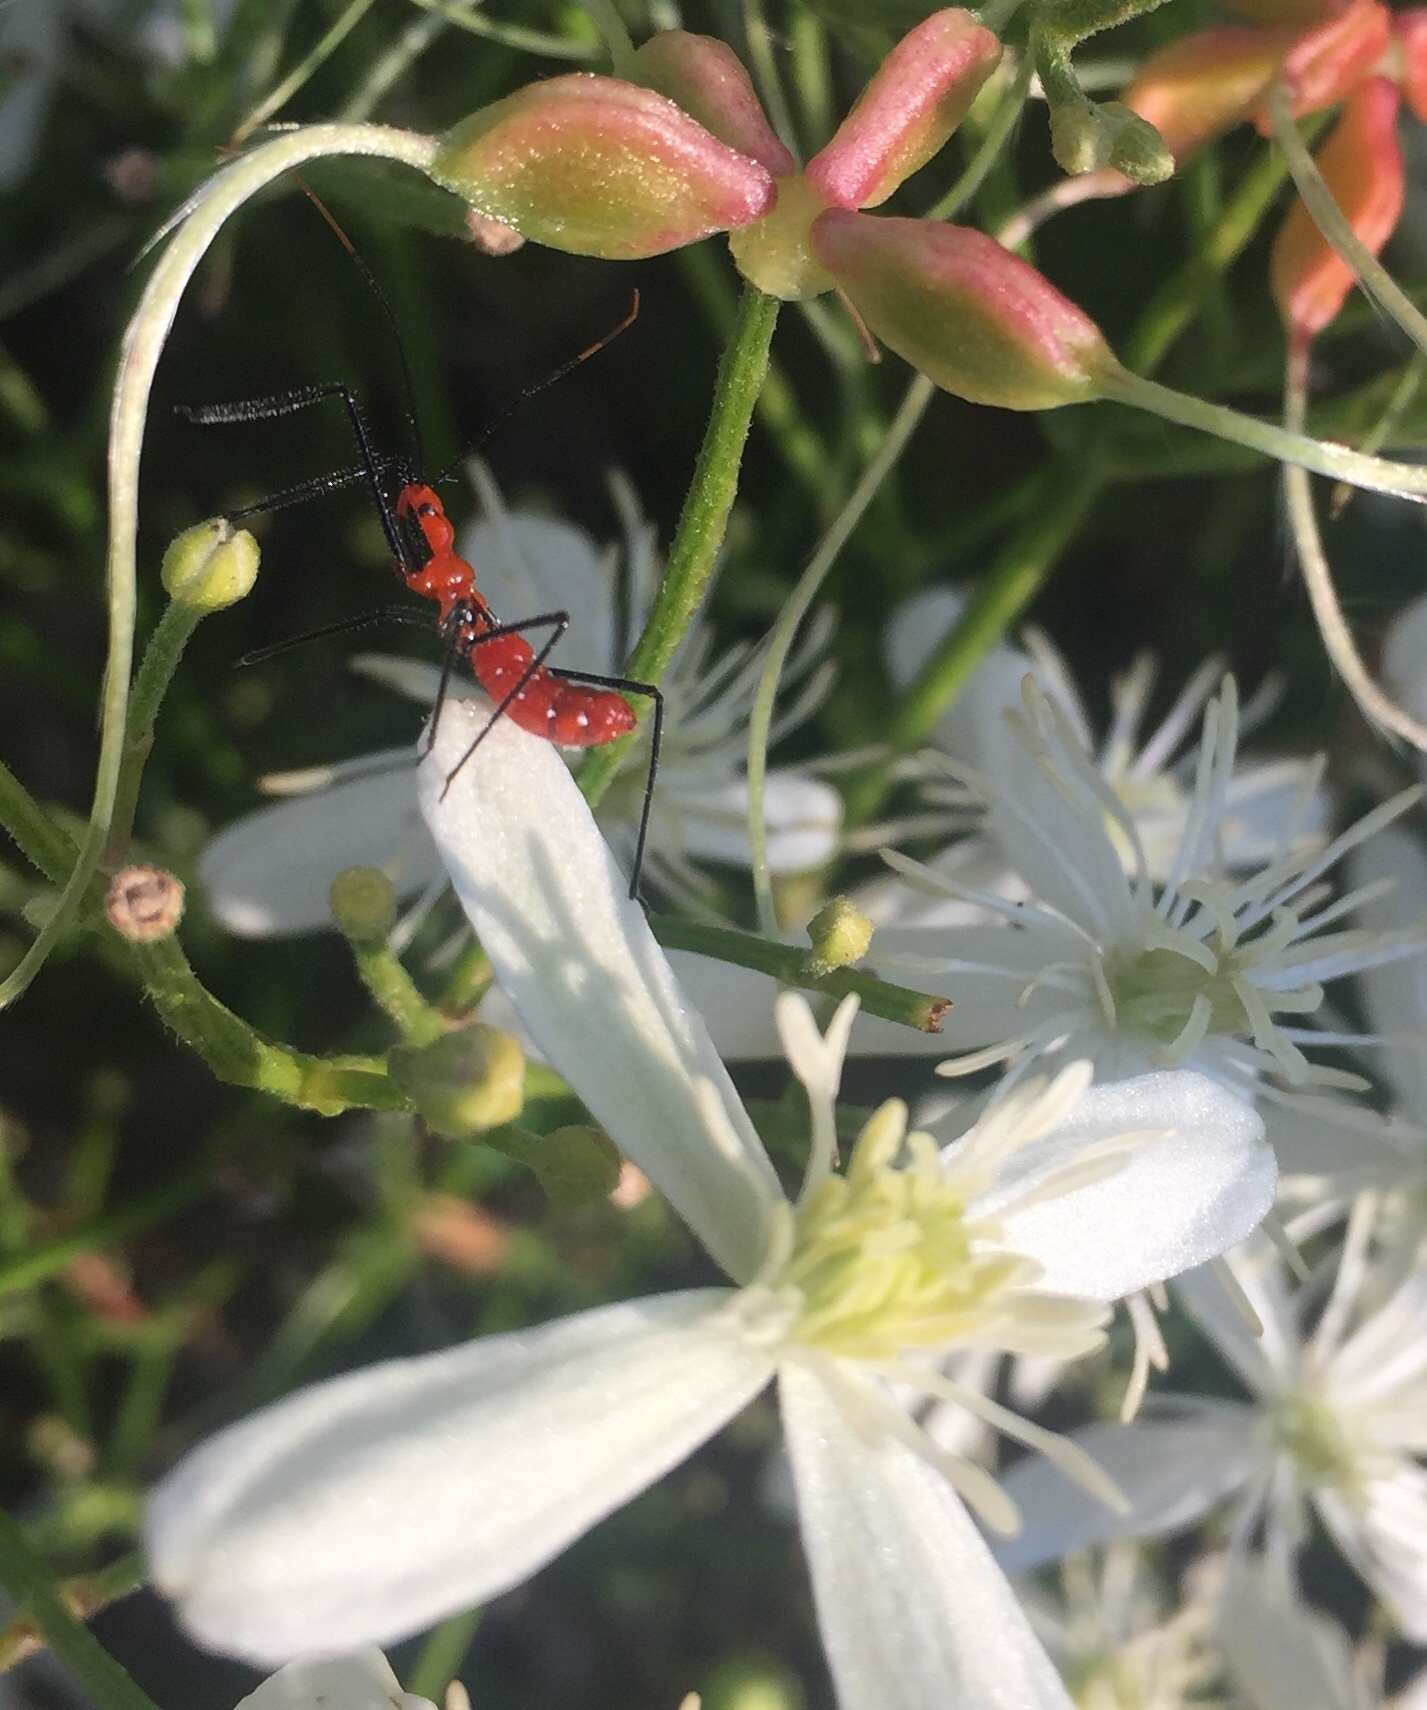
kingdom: Animalia
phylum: Arthropoda
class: Insecta
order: Hemiptera
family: Reduviidae
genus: Zelus
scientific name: Zelus longipes
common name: Milkweed assassin bug
